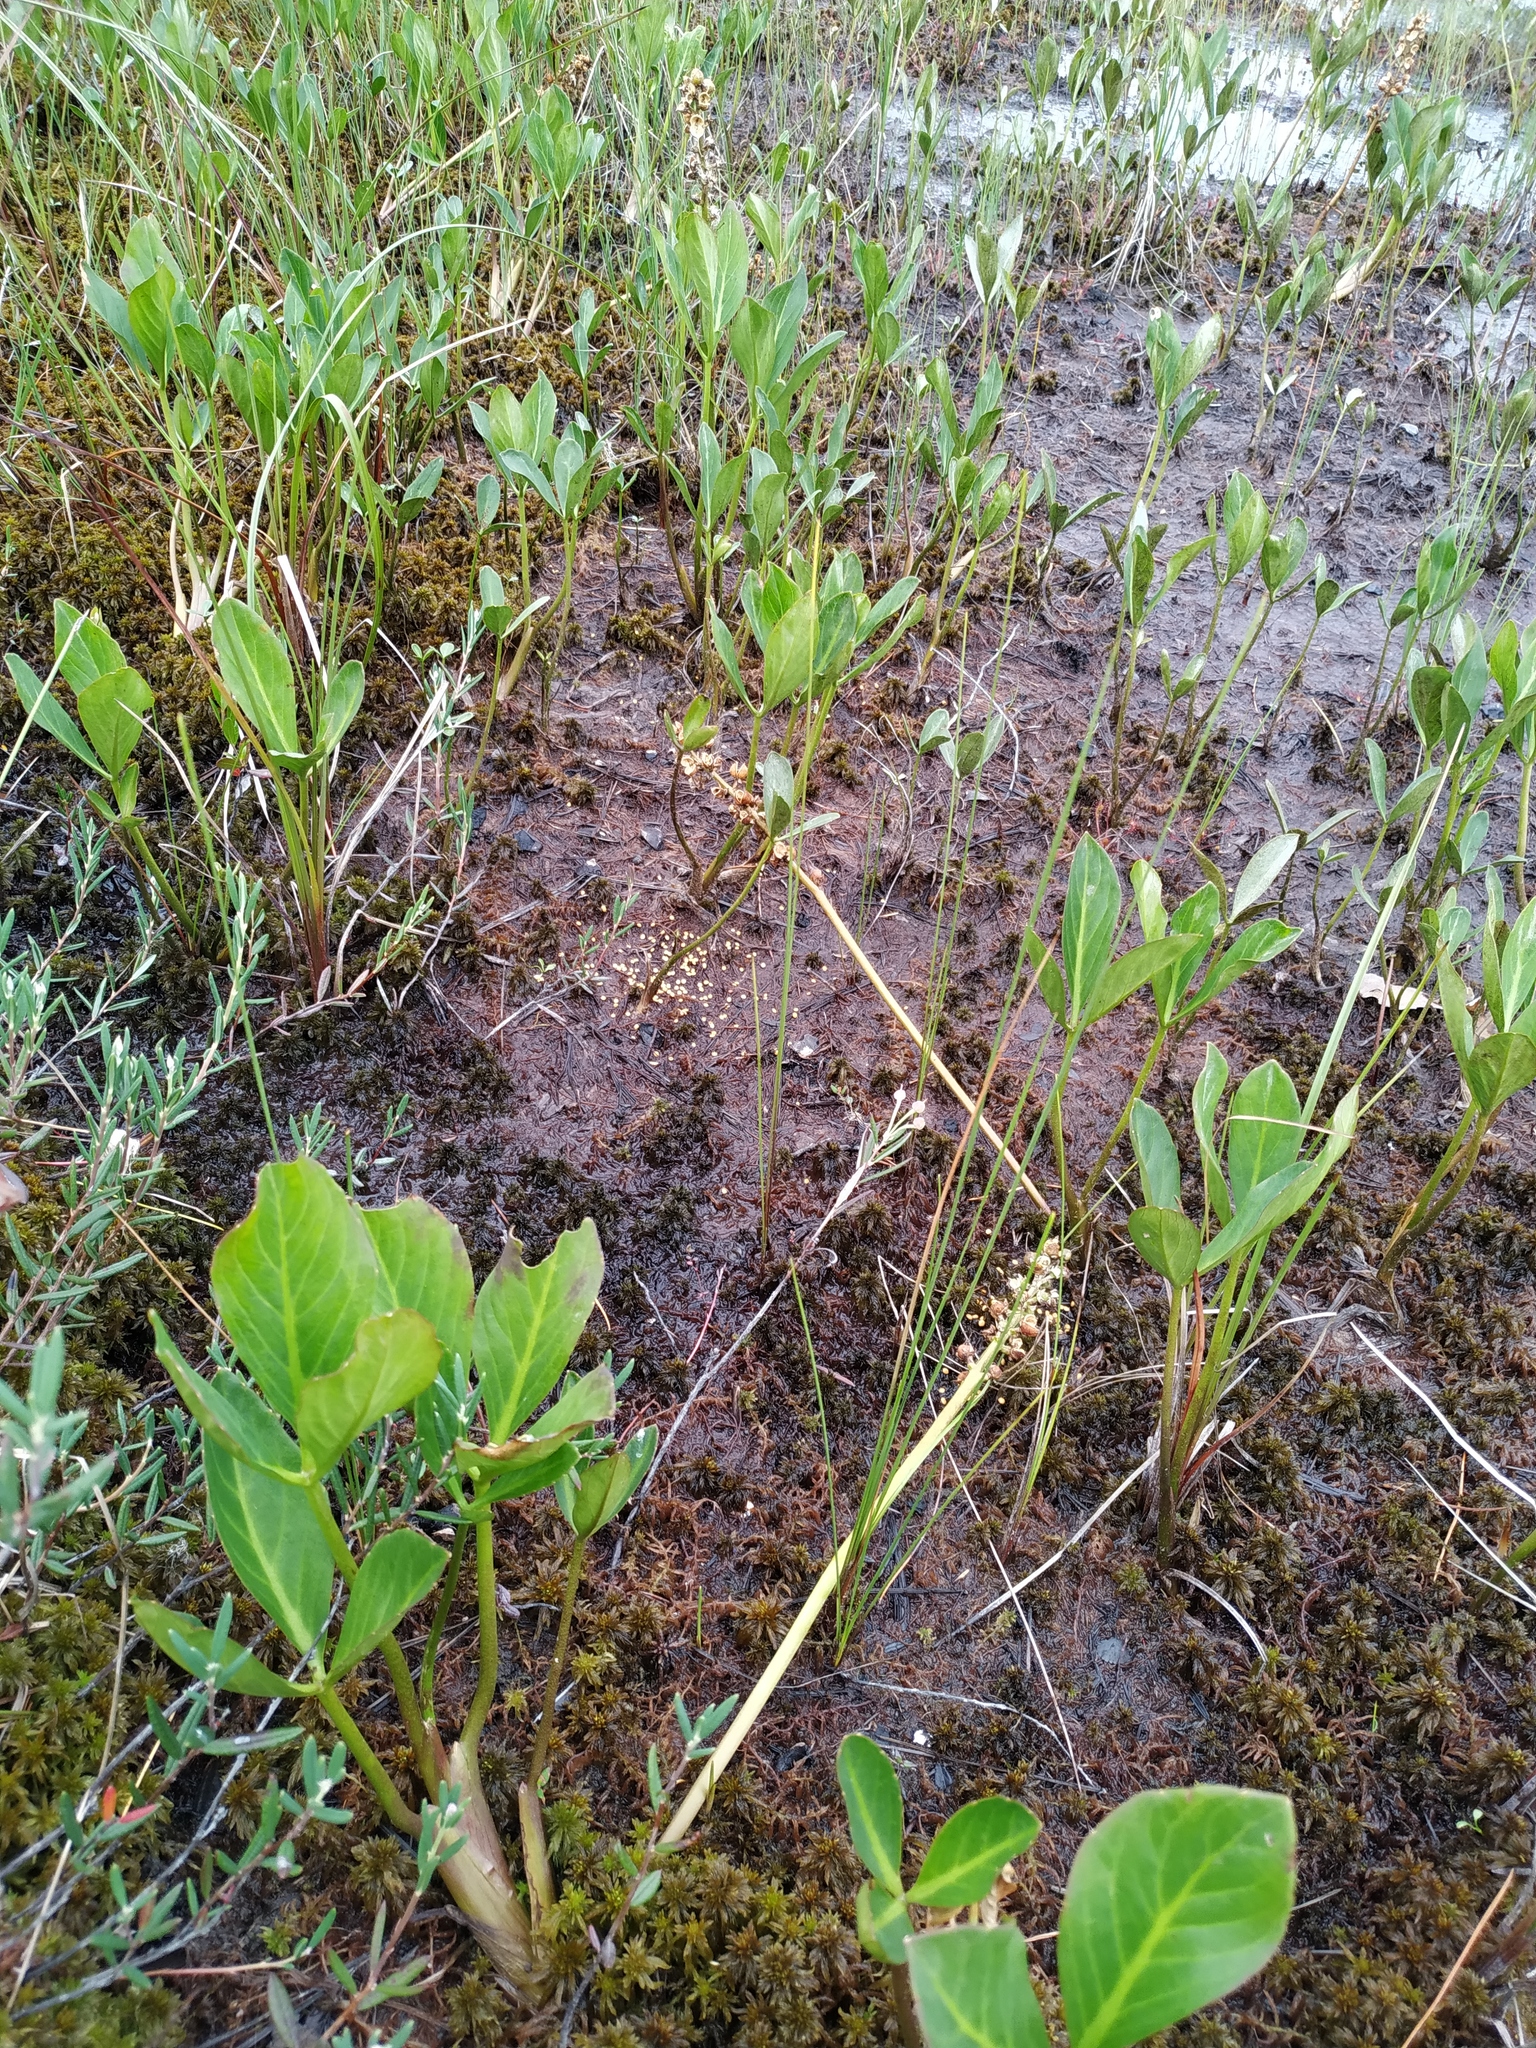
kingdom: Plantae
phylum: Tracheophyta
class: Magnoliopsida
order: Asterales
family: Menyanthaceae
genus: Menyanthes
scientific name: Menyanthes trifoliata
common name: Bogbean
